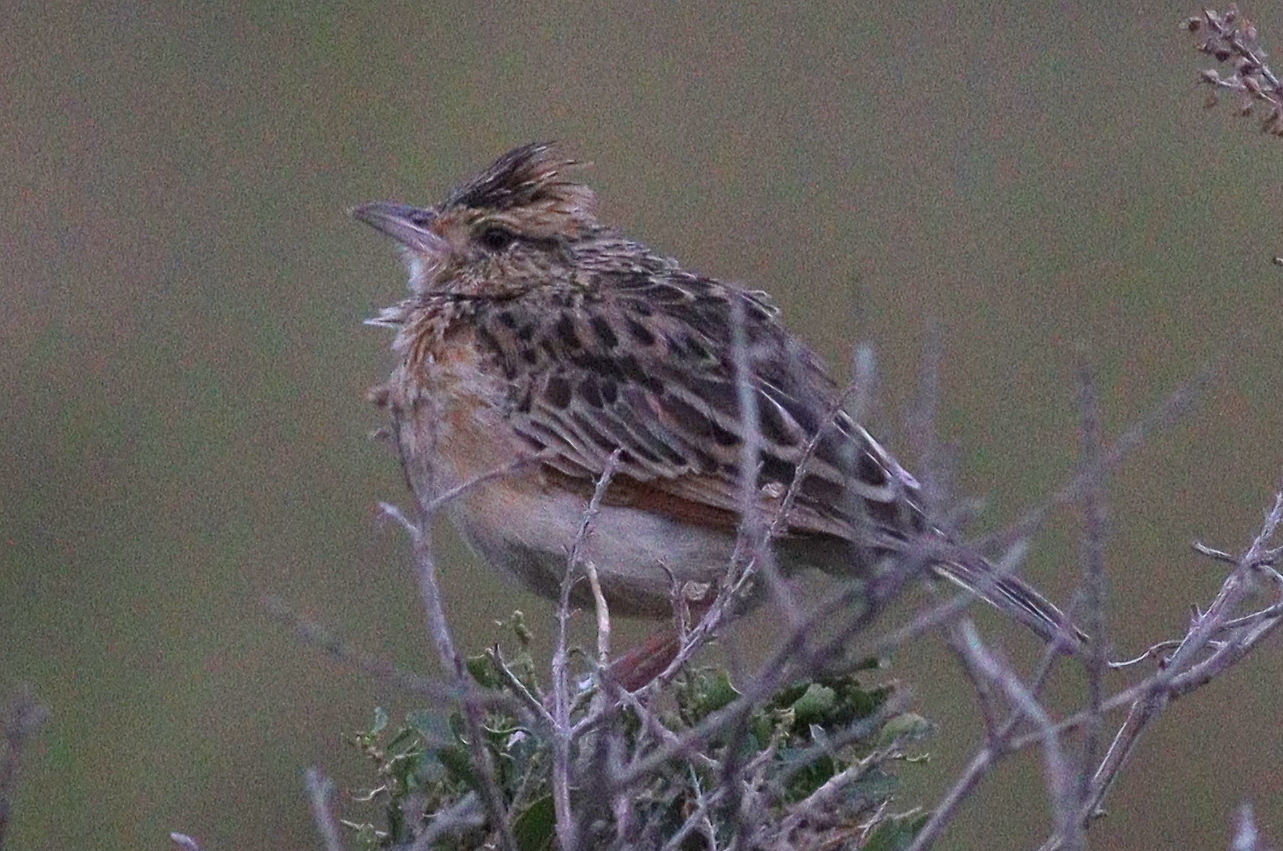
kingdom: Animalia
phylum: Chordata
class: Aves
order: Passeriformes
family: Alaudidae
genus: Mirafra
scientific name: Mirafra africana
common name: Rufous-naped lark
